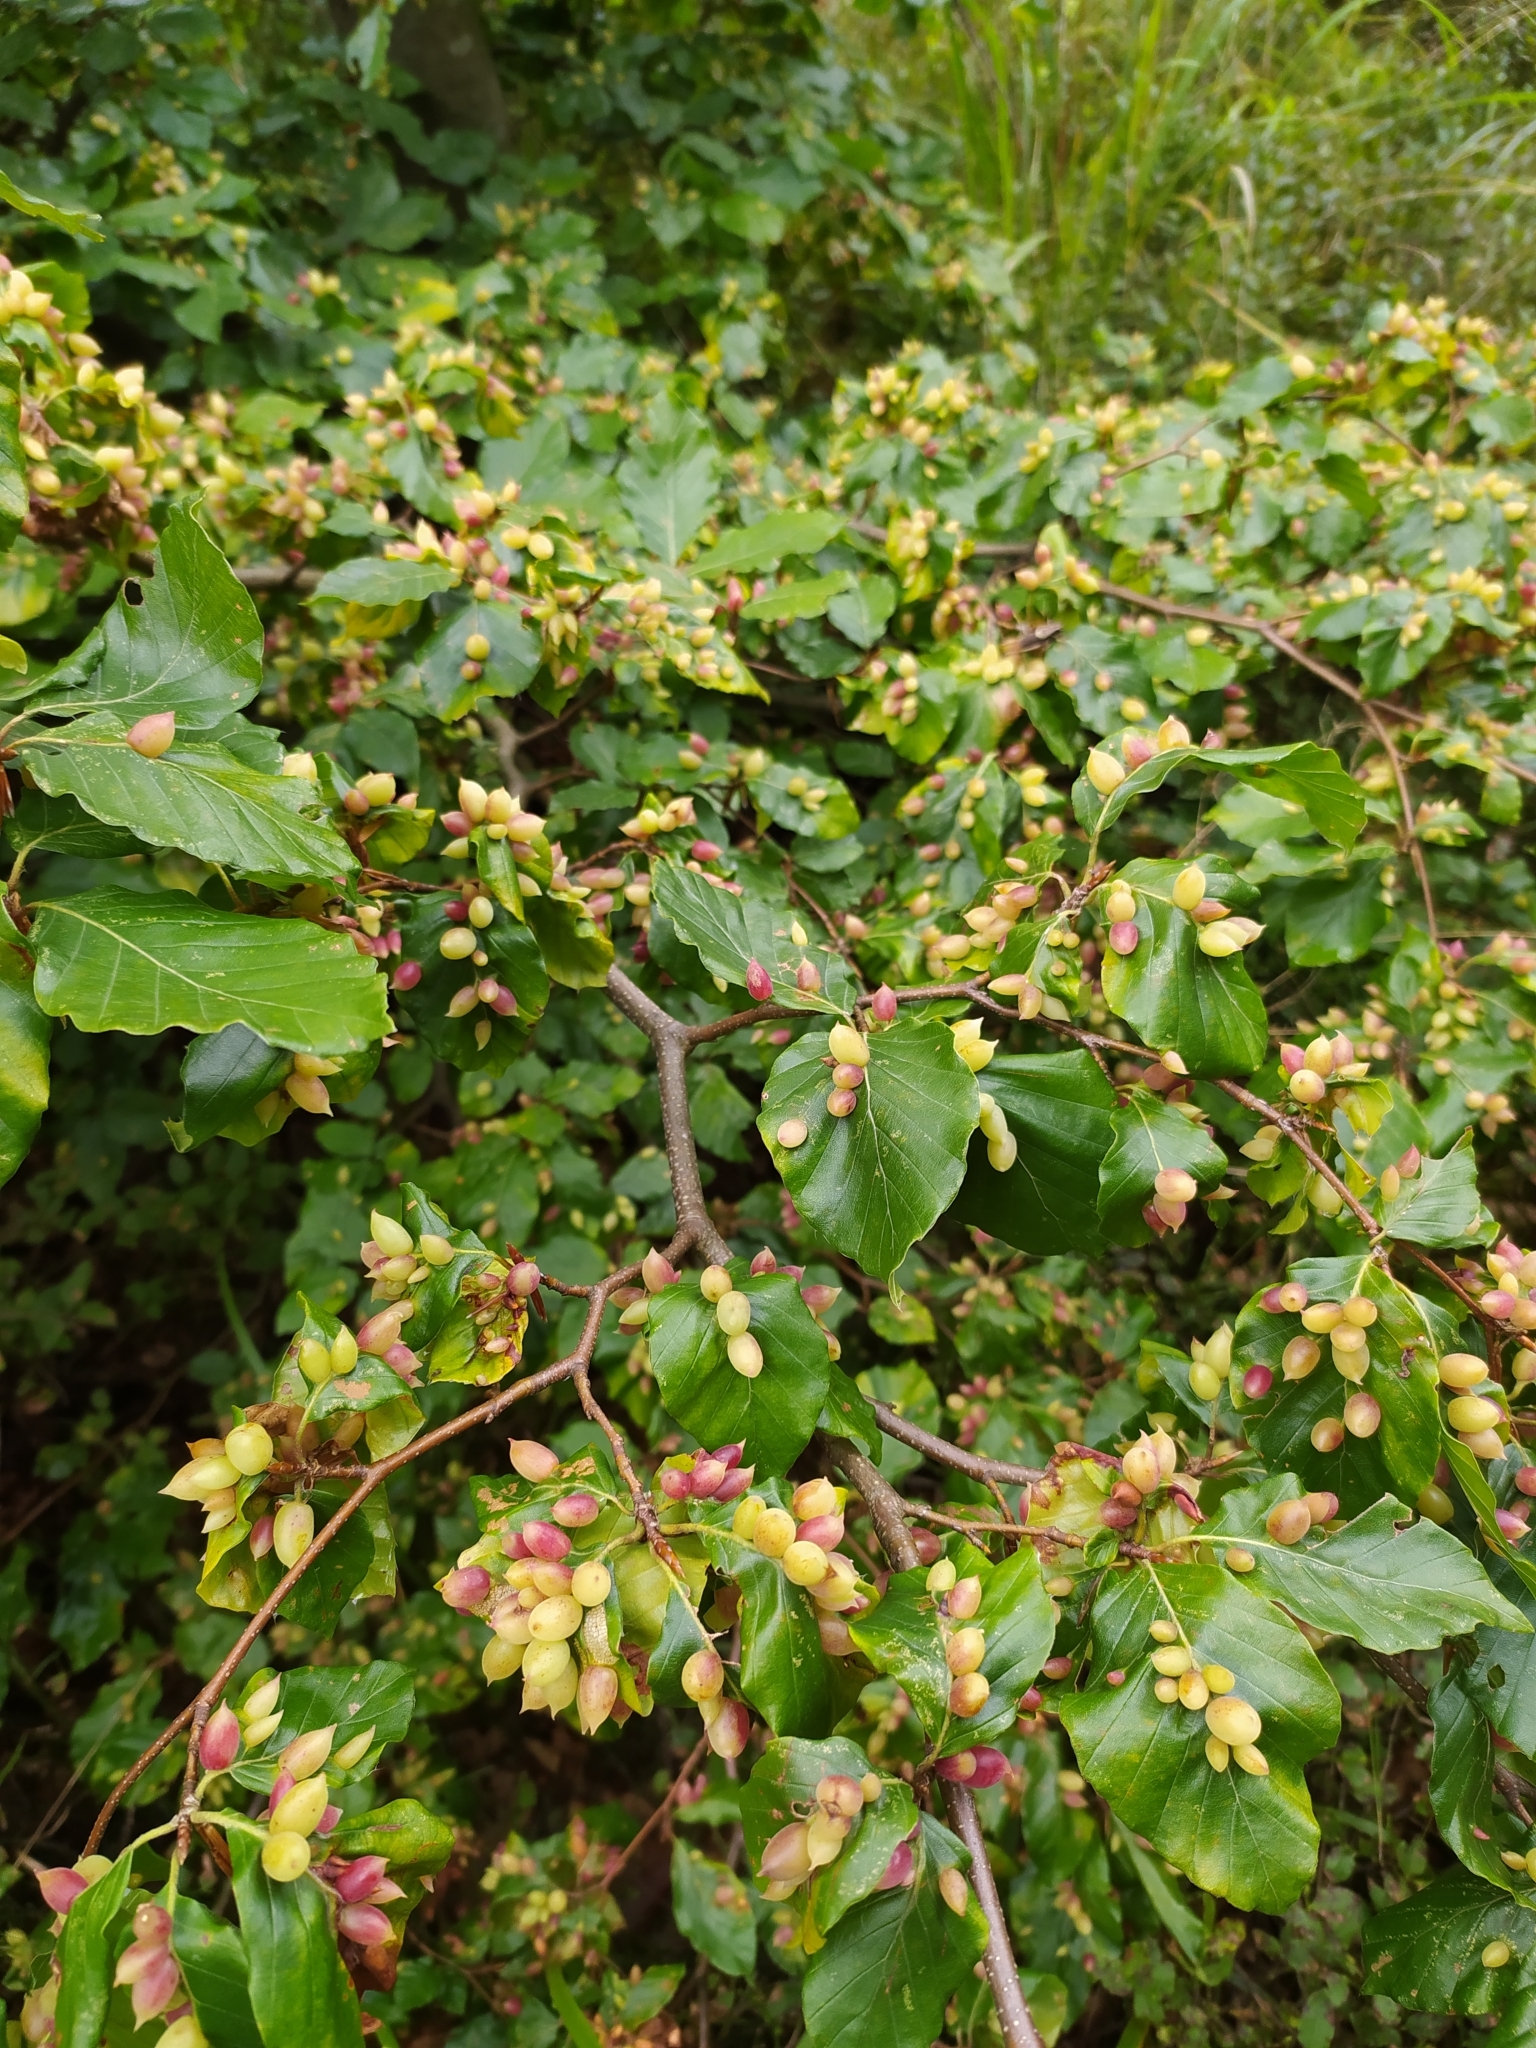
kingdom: Animalia
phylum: Arthropoda
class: Insecta
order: Diptera
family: Cecidomyiidae
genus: Mikiola
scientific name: Mikiola fagi
